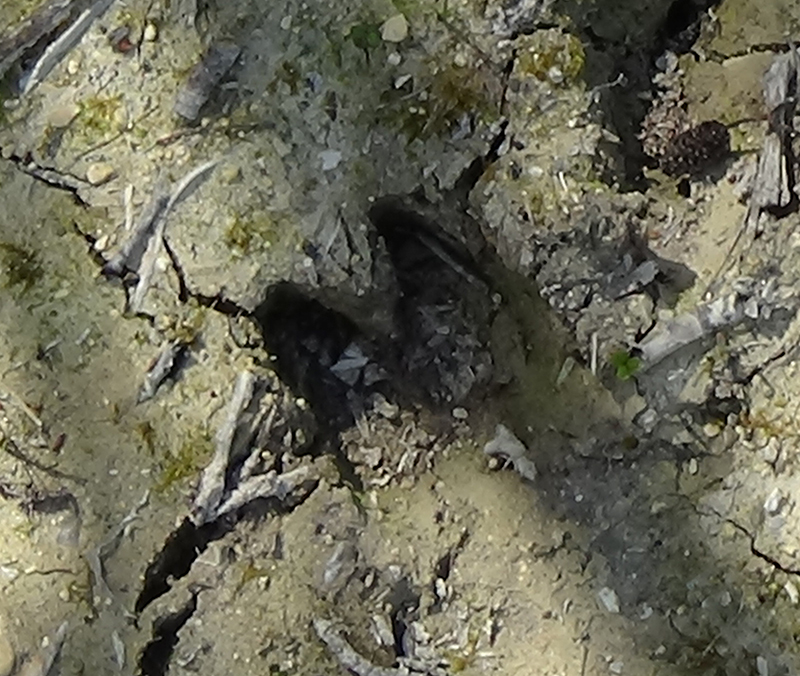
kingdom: Animalia
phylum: Chordata
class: Mammalia
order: Artiodactyla
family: Suidae
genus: Sus
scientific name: Sus scrofa
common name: Wild boar
